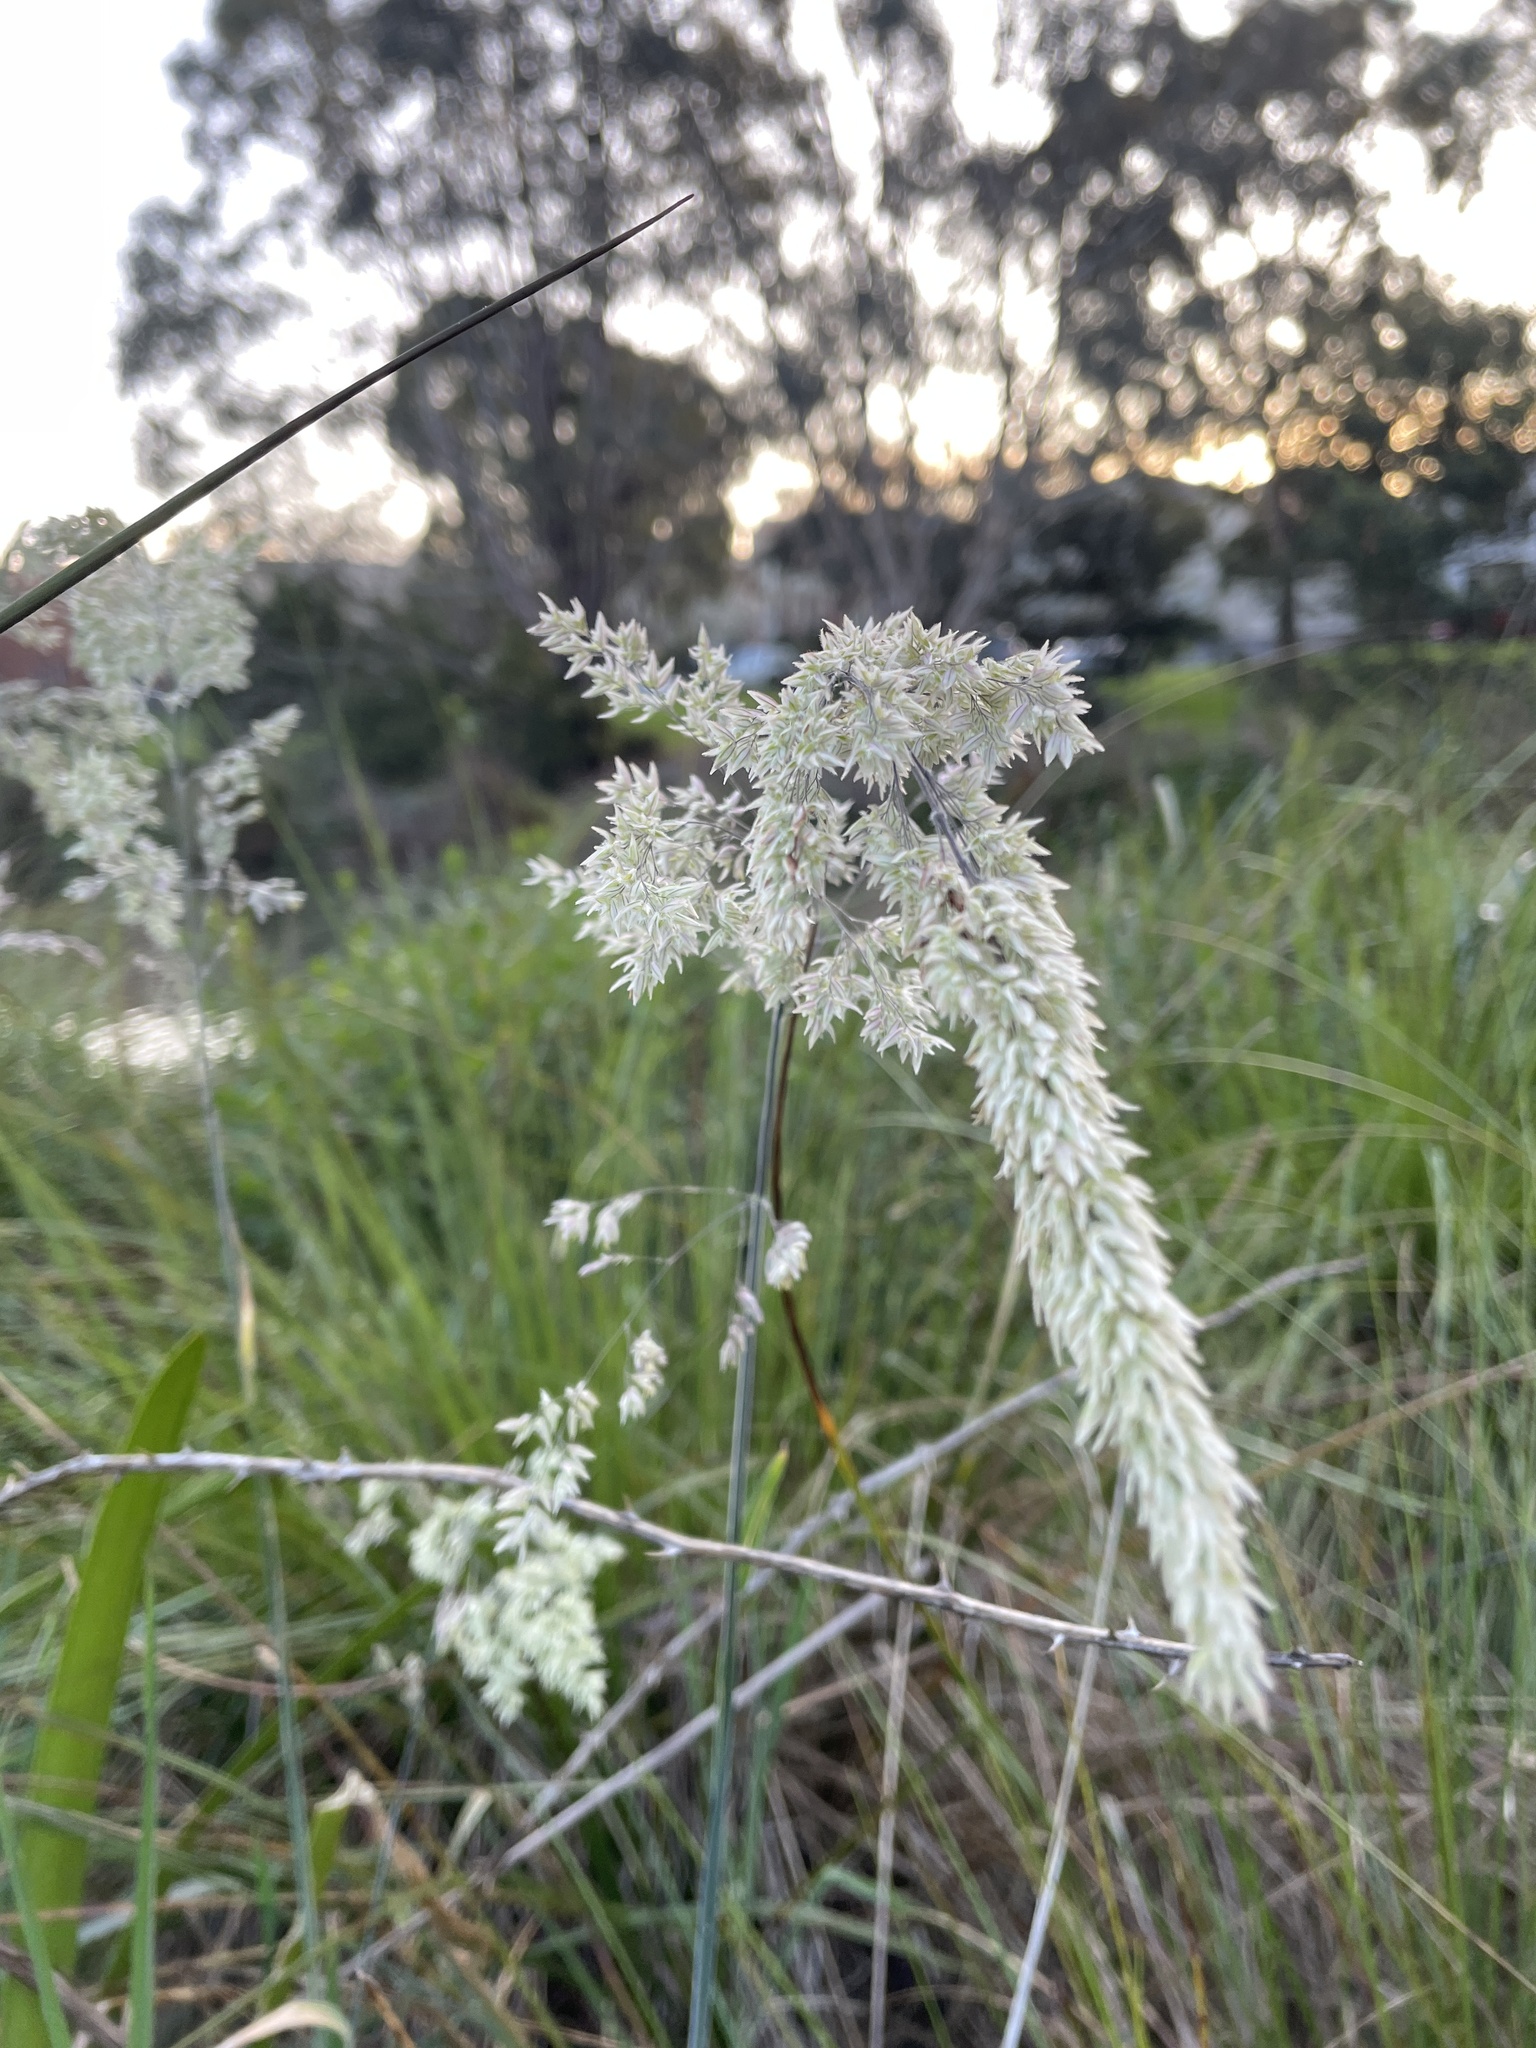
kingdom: Plantae
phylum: Tracheophyta
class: Liliopsida
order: Poales
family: Poaceae
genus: Holcus
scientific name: Holcus lanatus
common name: Yorkshire-fog
